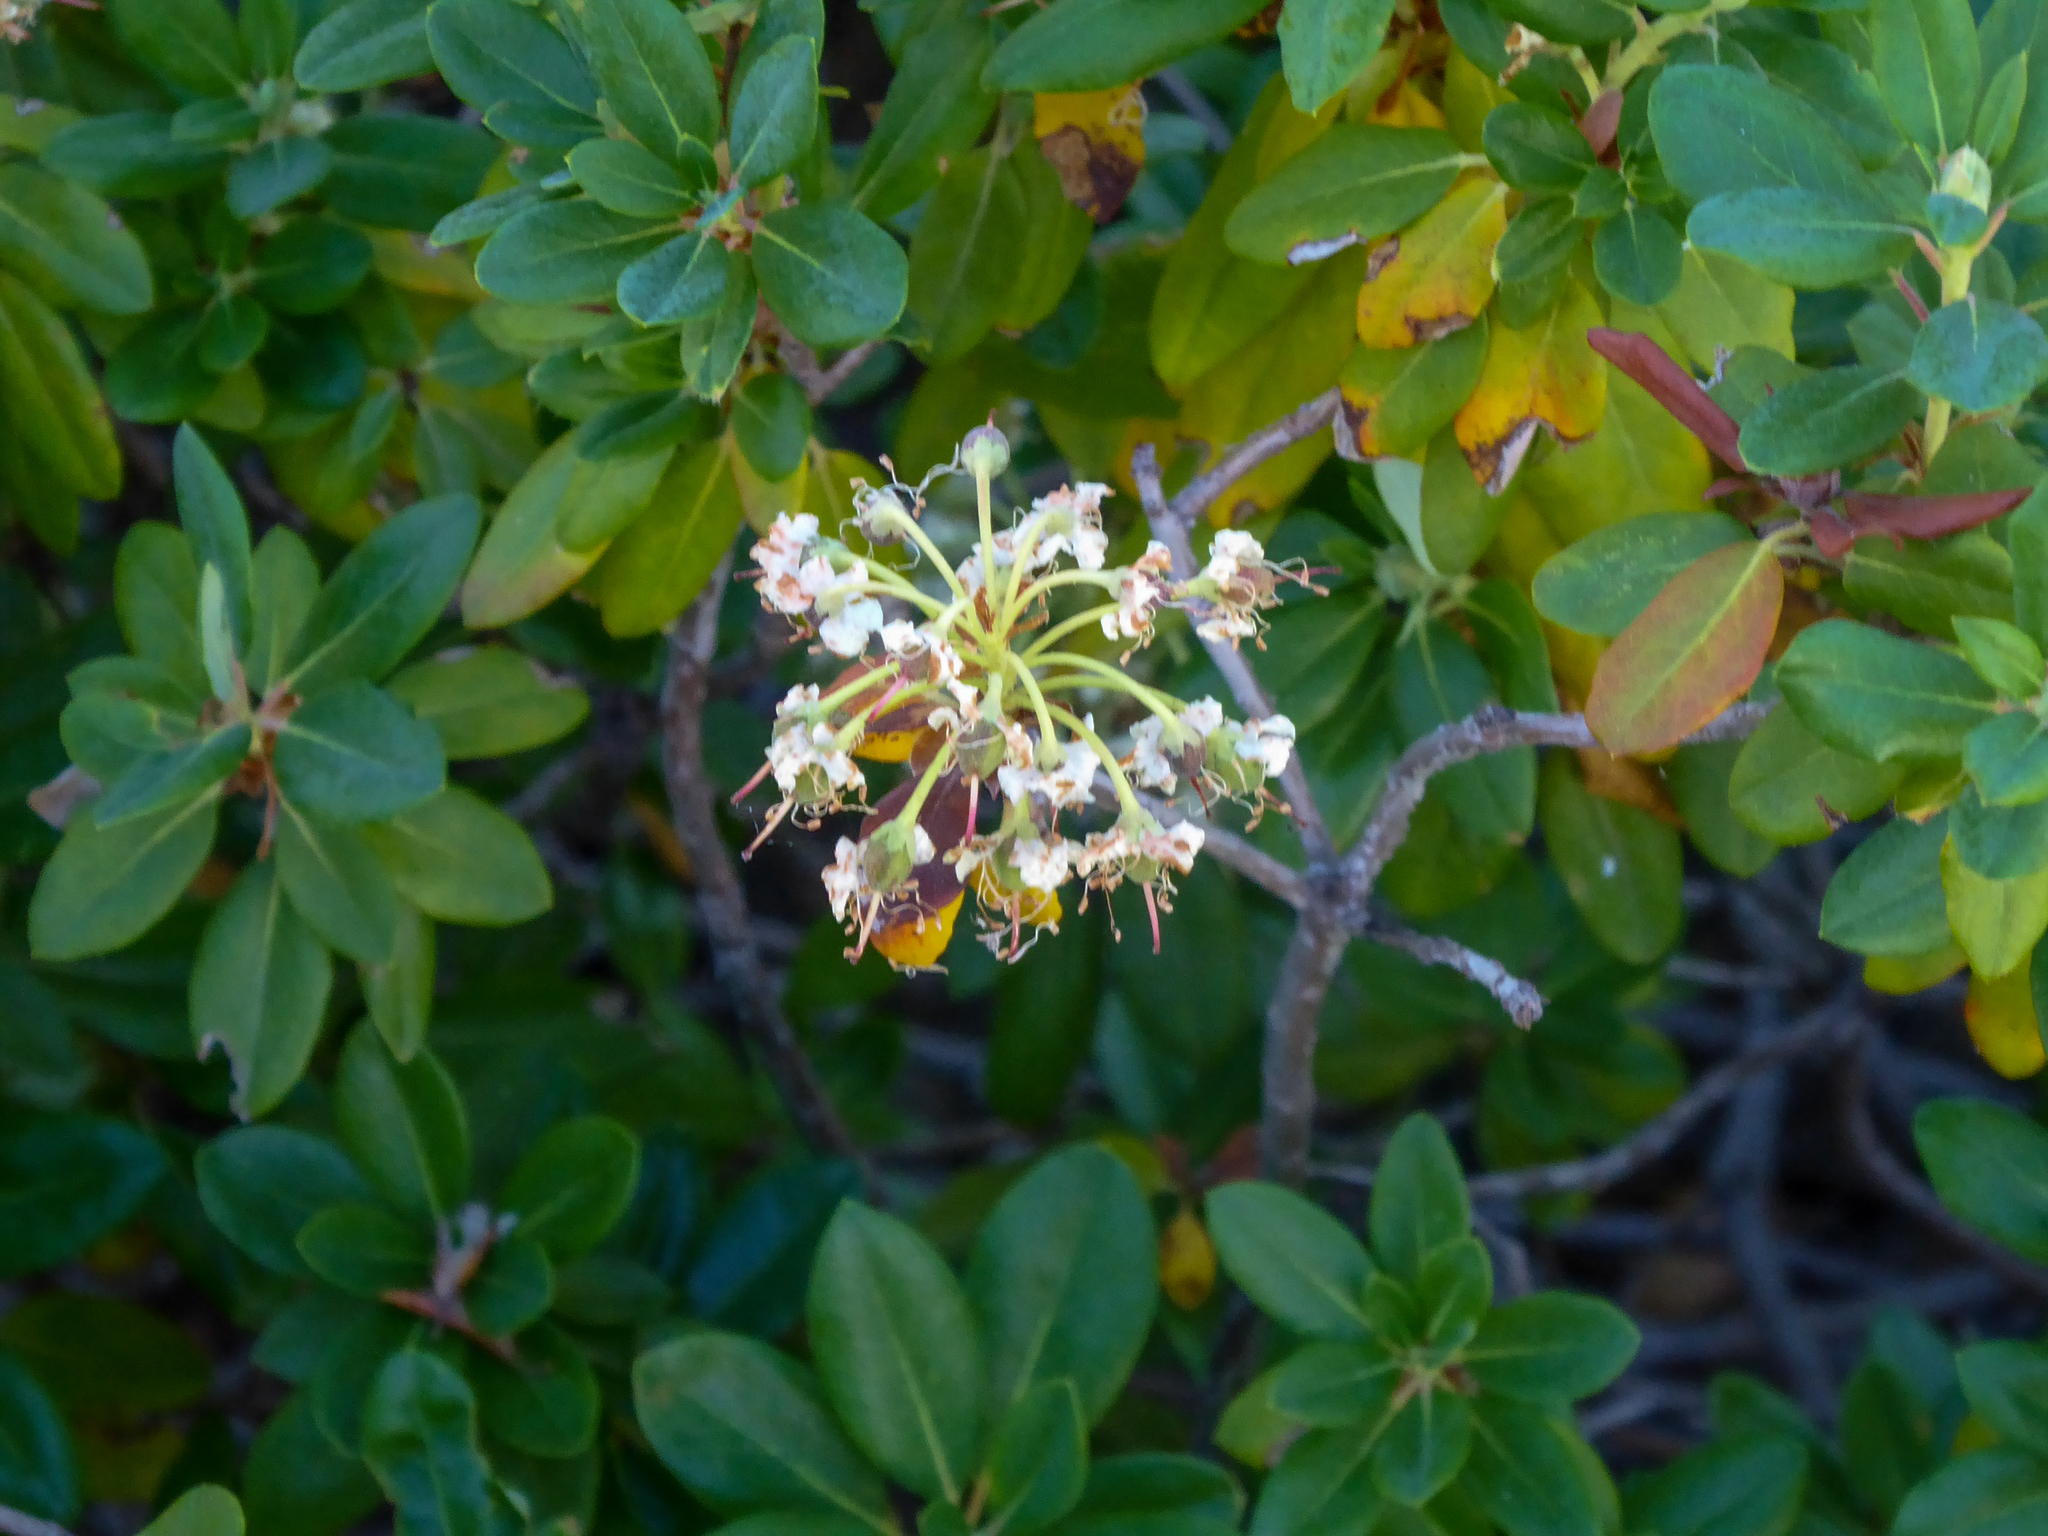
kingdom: Plantae
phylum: Tracheophyta
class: Magnoliopsida
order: Ericales
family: Ericaceae
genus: Rhododendron
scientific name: Rhododendron columbianum
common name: Western labrador tea
